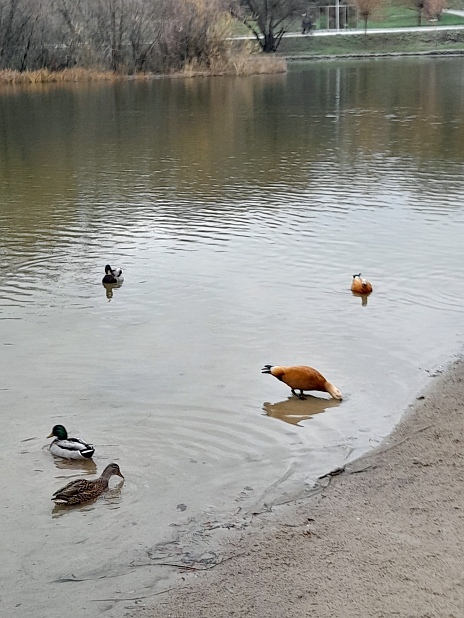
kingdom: Animalia
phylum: Chordata
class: Aves
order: Anseriformes
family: Anatidae
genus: Anas
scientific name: Anas platyrhynchos
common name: Mallard
